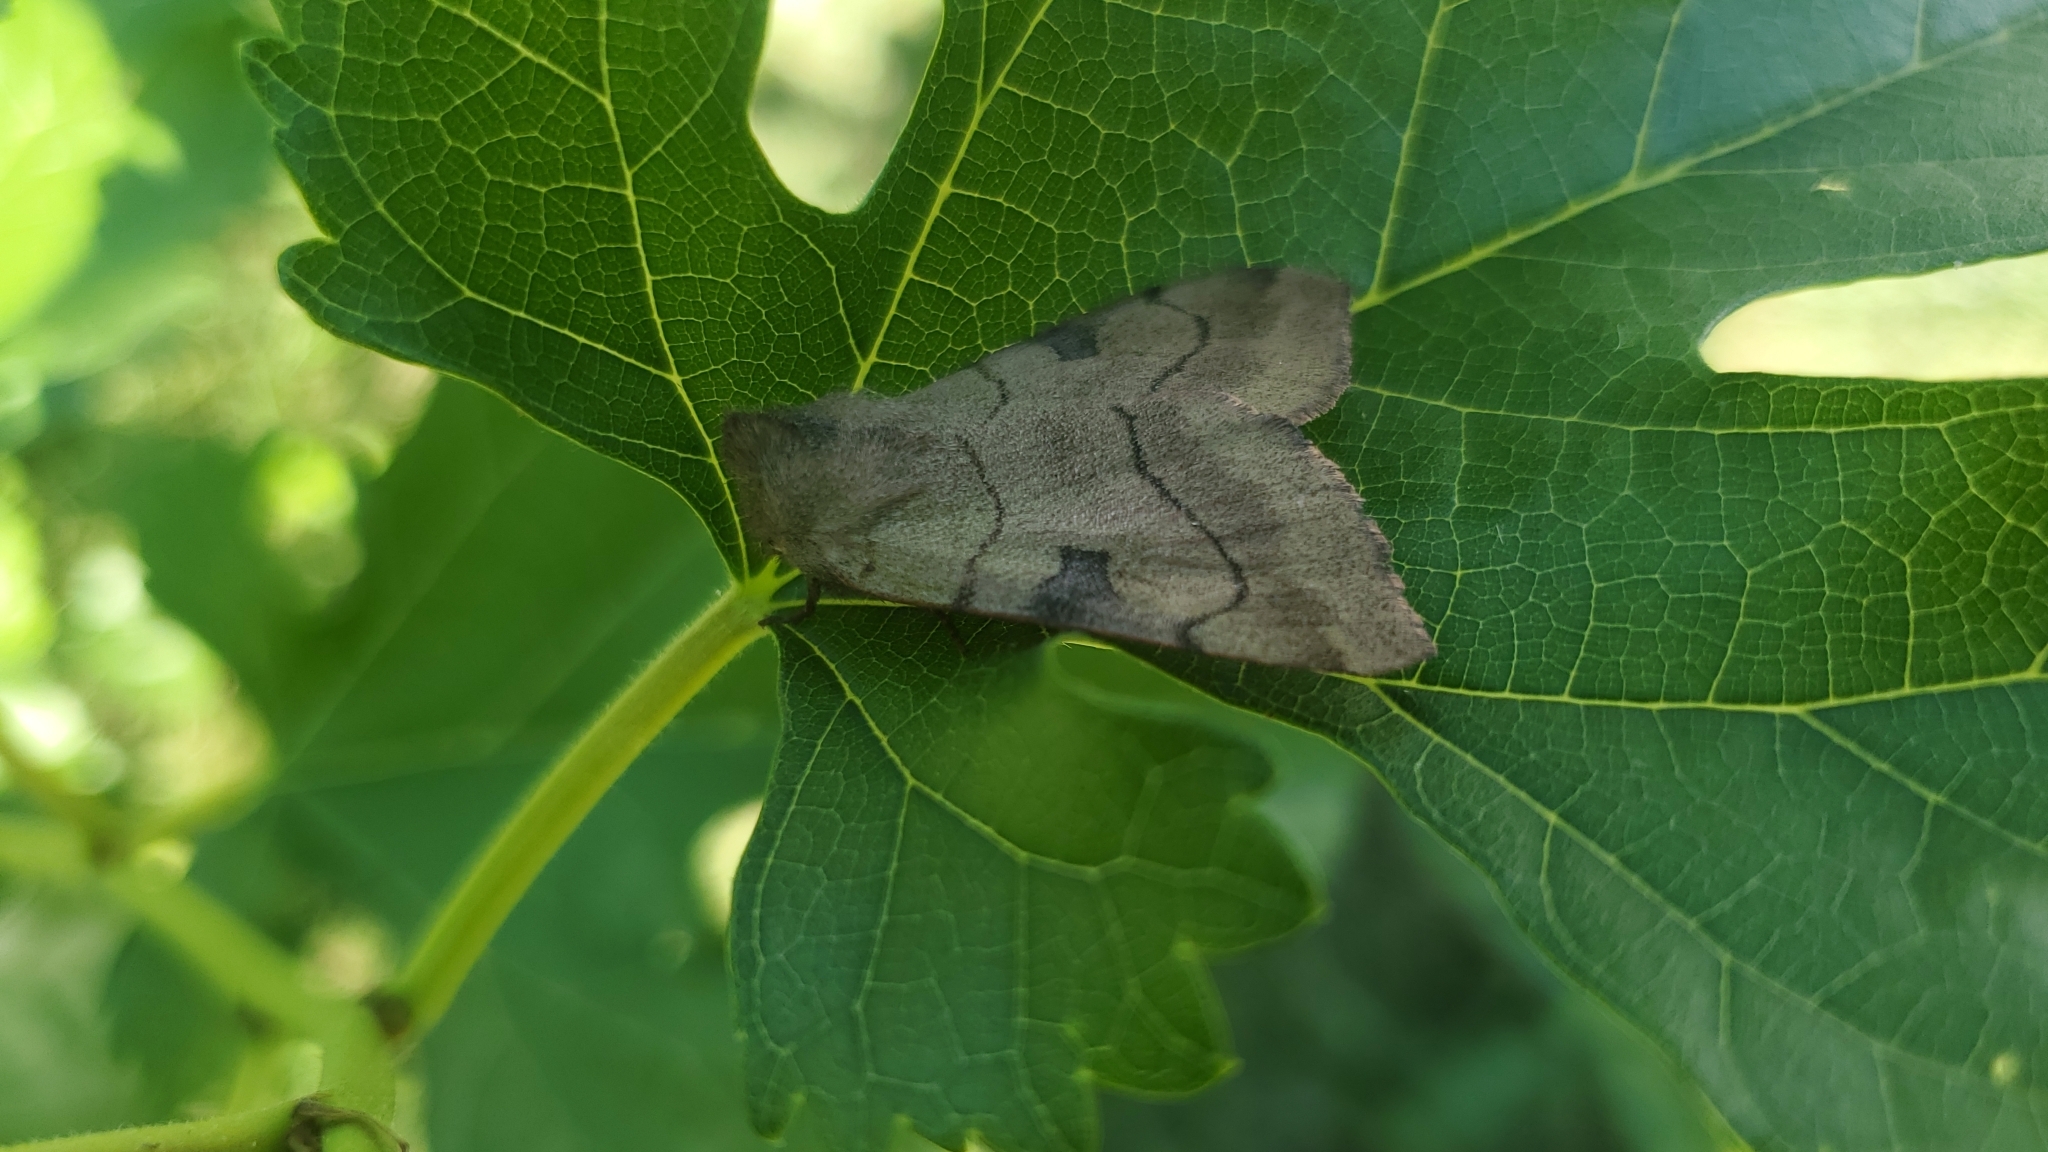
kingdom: Animalia
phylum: Arthropoda
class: Insecta
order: Lepidoptera
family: Noctuidae
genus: Choephora
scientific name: Choephora fungorum
